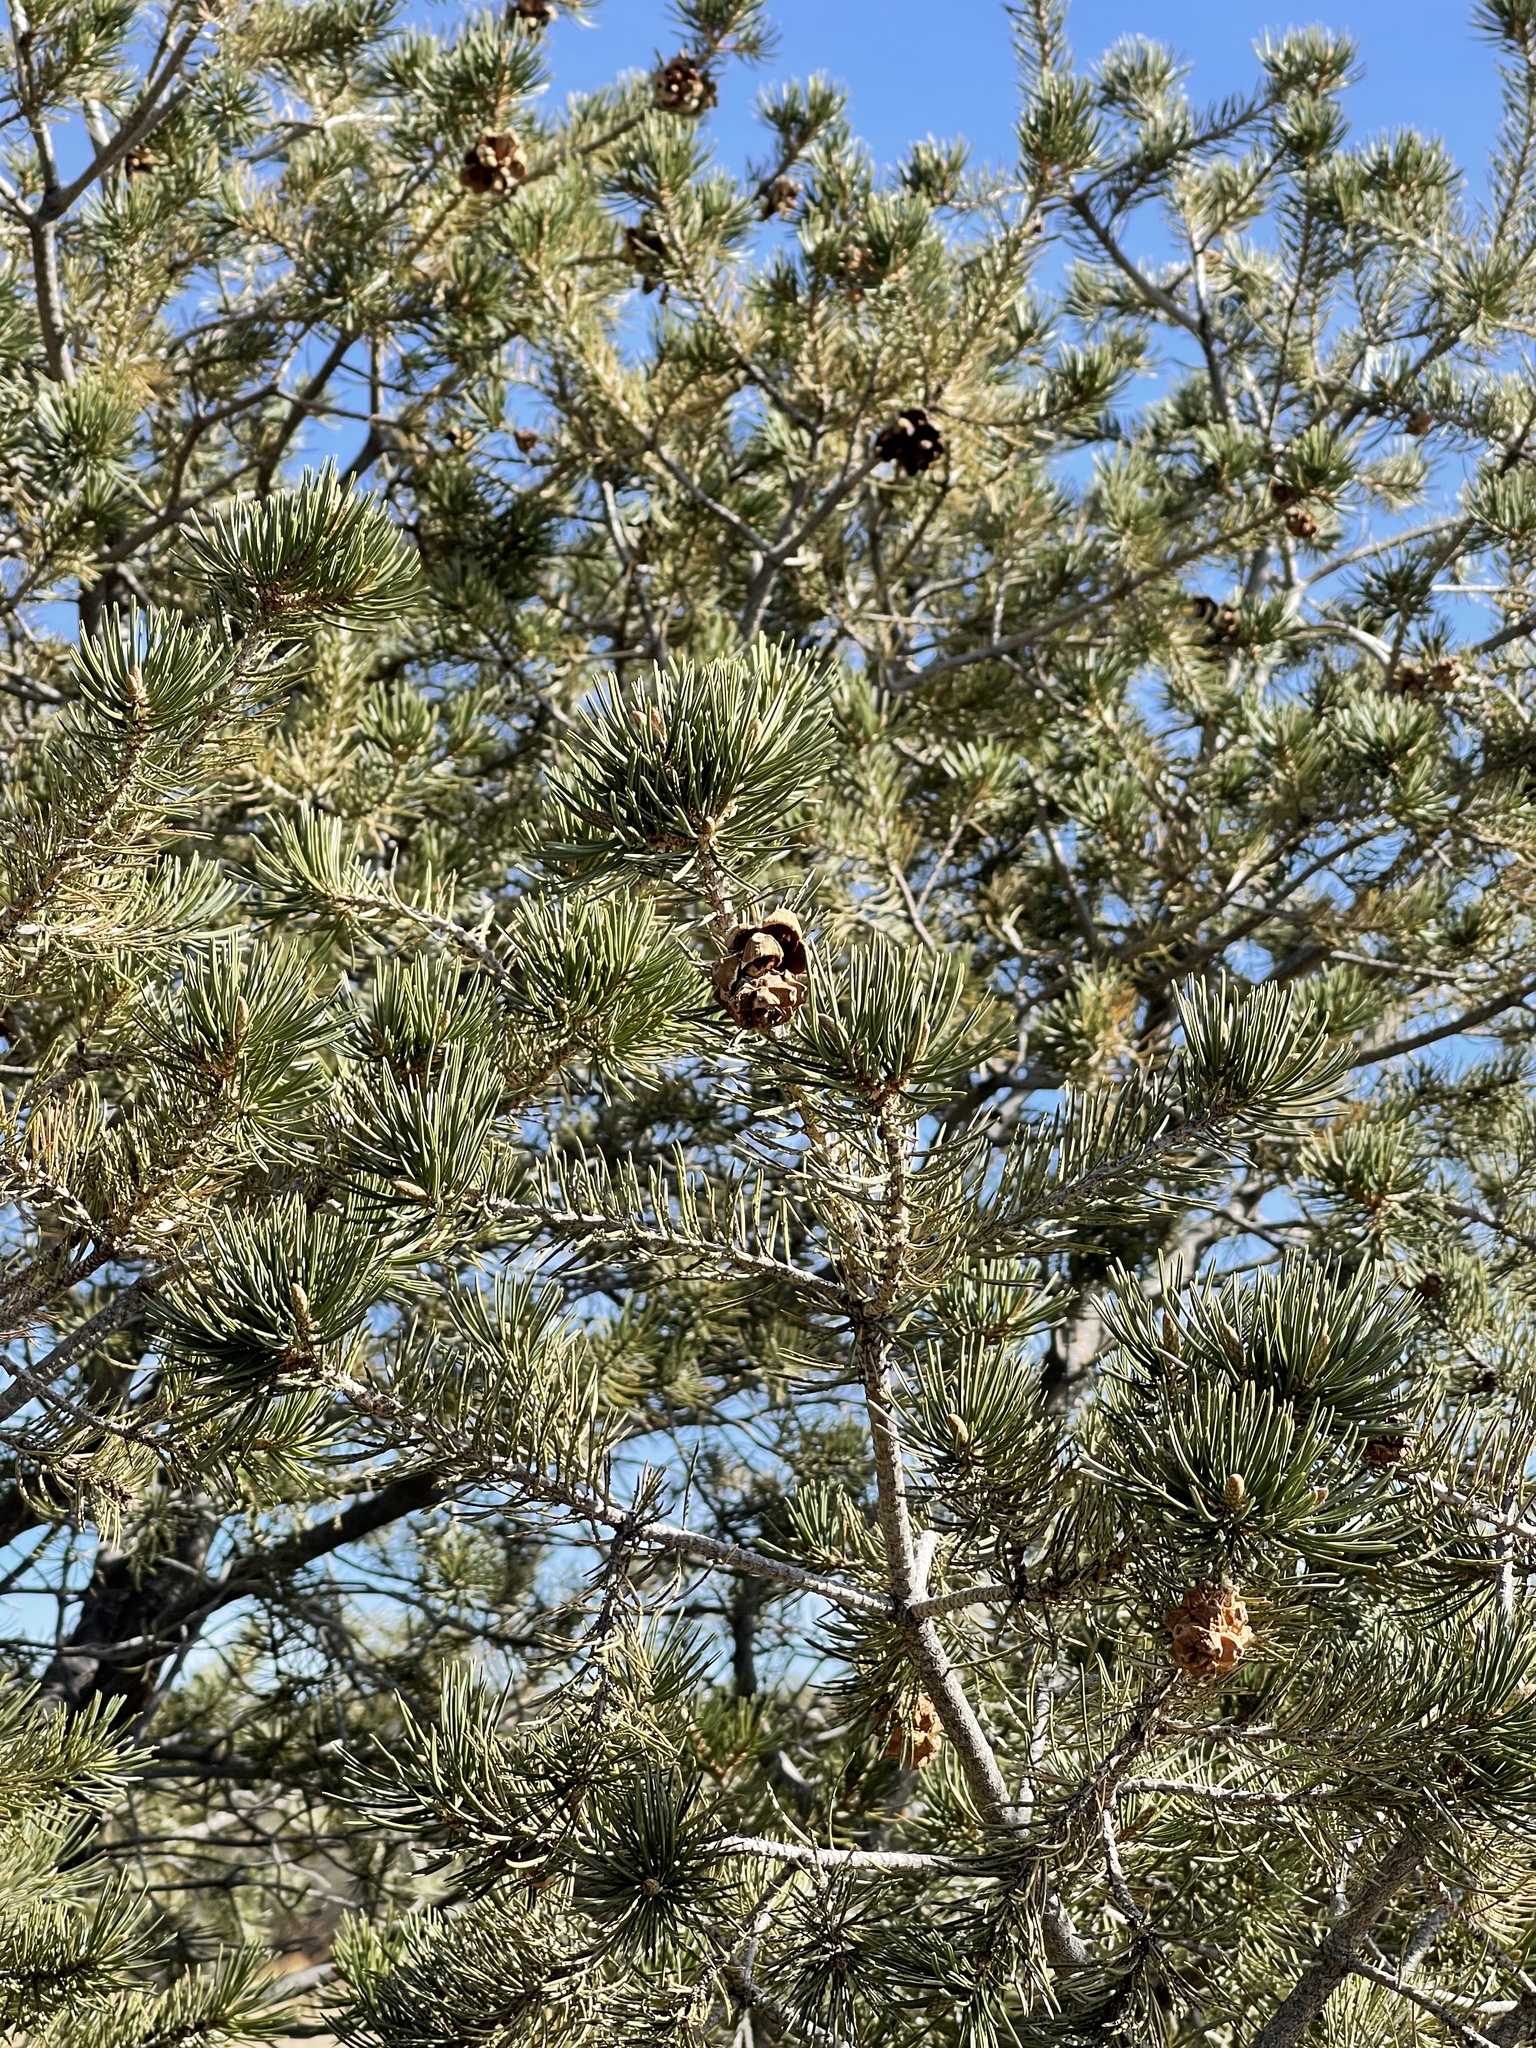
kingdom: Plantae
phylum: Tracheophyta
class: Pinopsida
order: Pinales
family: Pinaceae
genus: Pinus
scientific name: Pinus edulis
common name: Colorado pinyon
